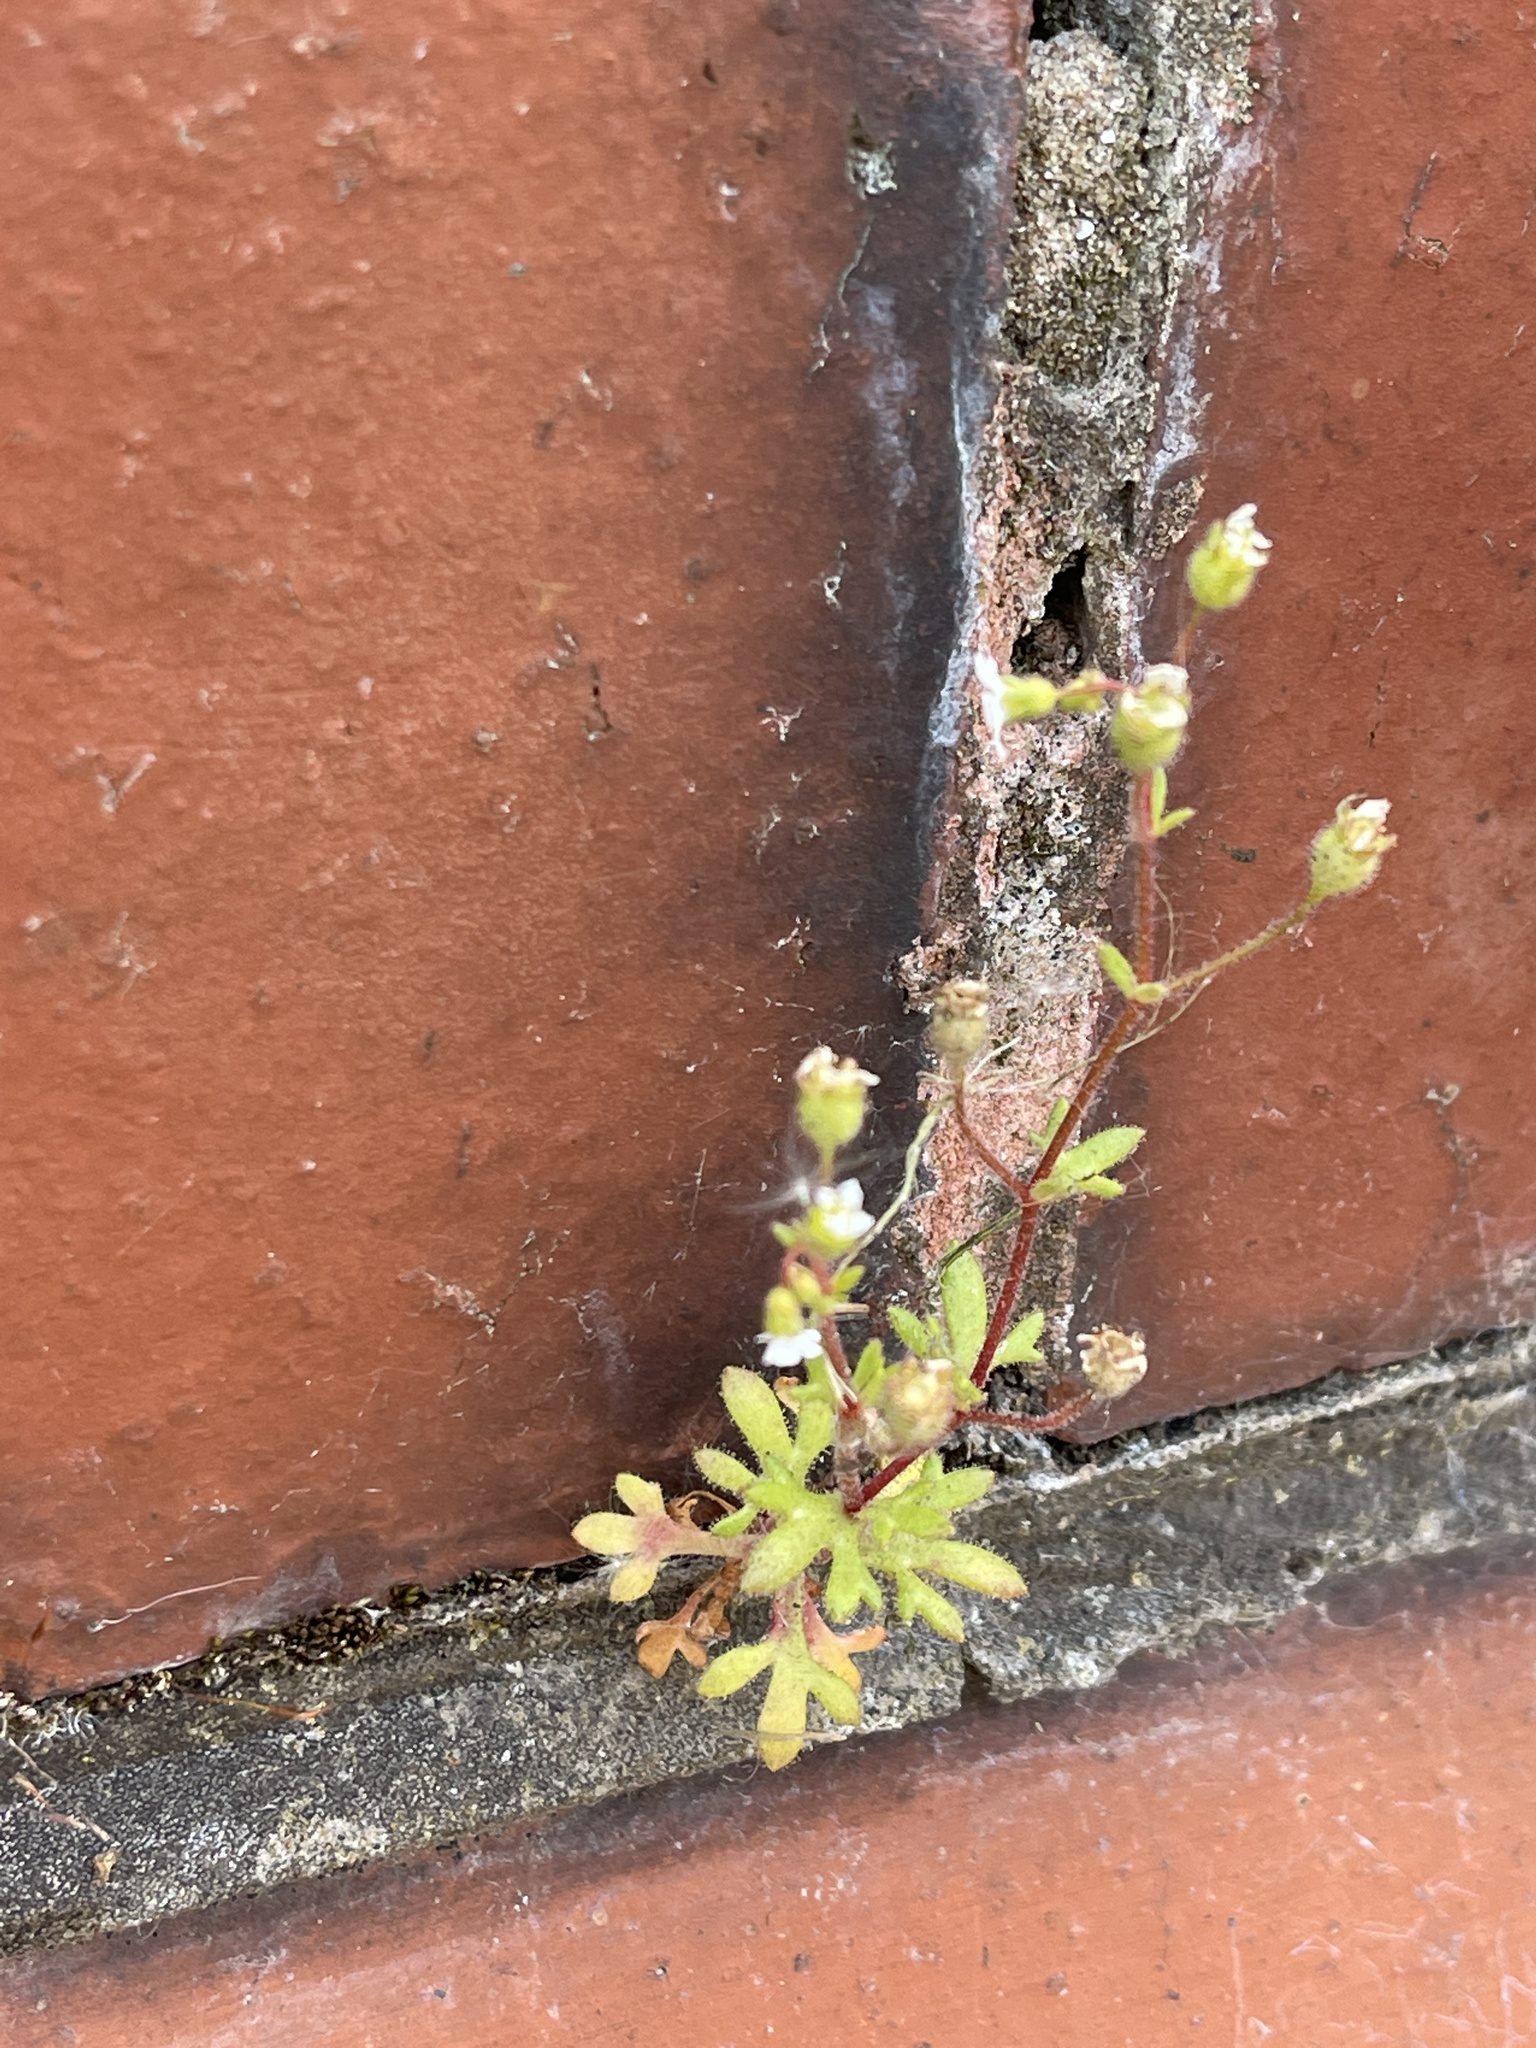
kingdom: Plantae
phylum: Tracheophyta
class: Magnoliopsida
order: Saxifragales
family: Saxifragaceae
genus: Saxifraga
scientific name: Saxifraga tridactylites
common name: Rue-leaved saxifrage
